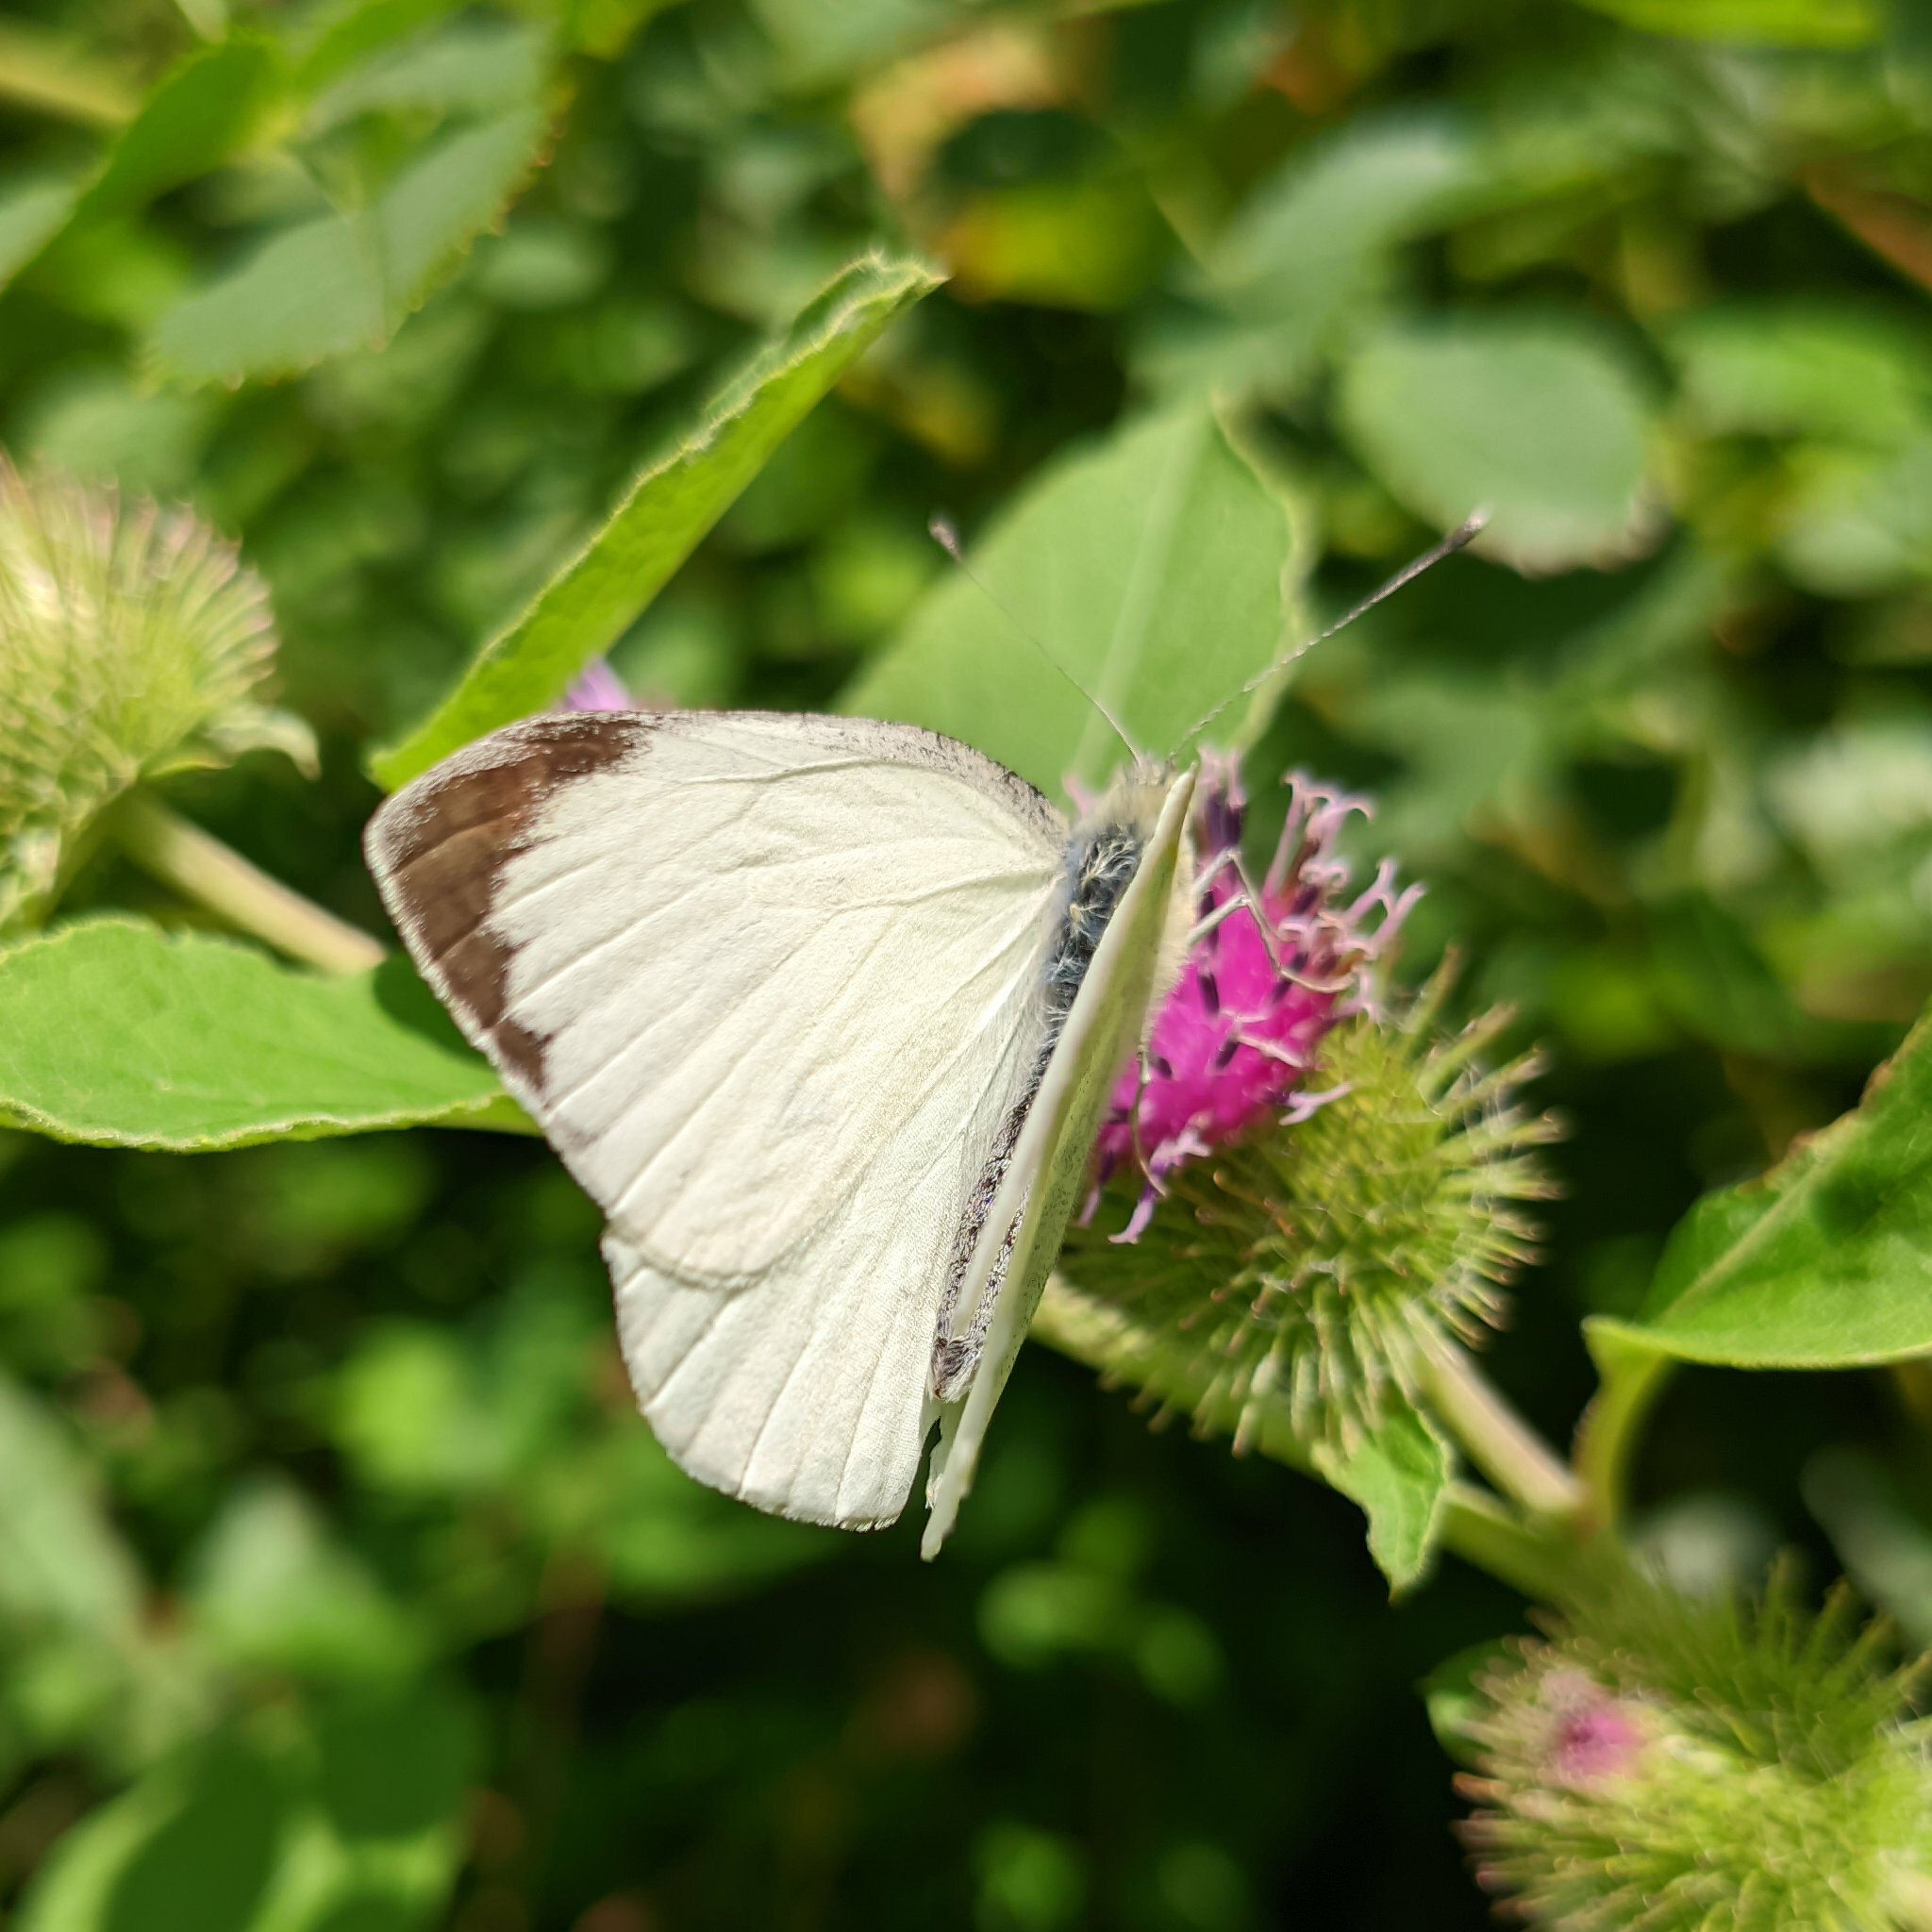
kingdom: Animalia
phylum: Arthropoda
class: Insecta
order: Lepidoptera
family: Pieridae
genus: Pieris
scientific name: Pieris brassicae
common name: Large white
